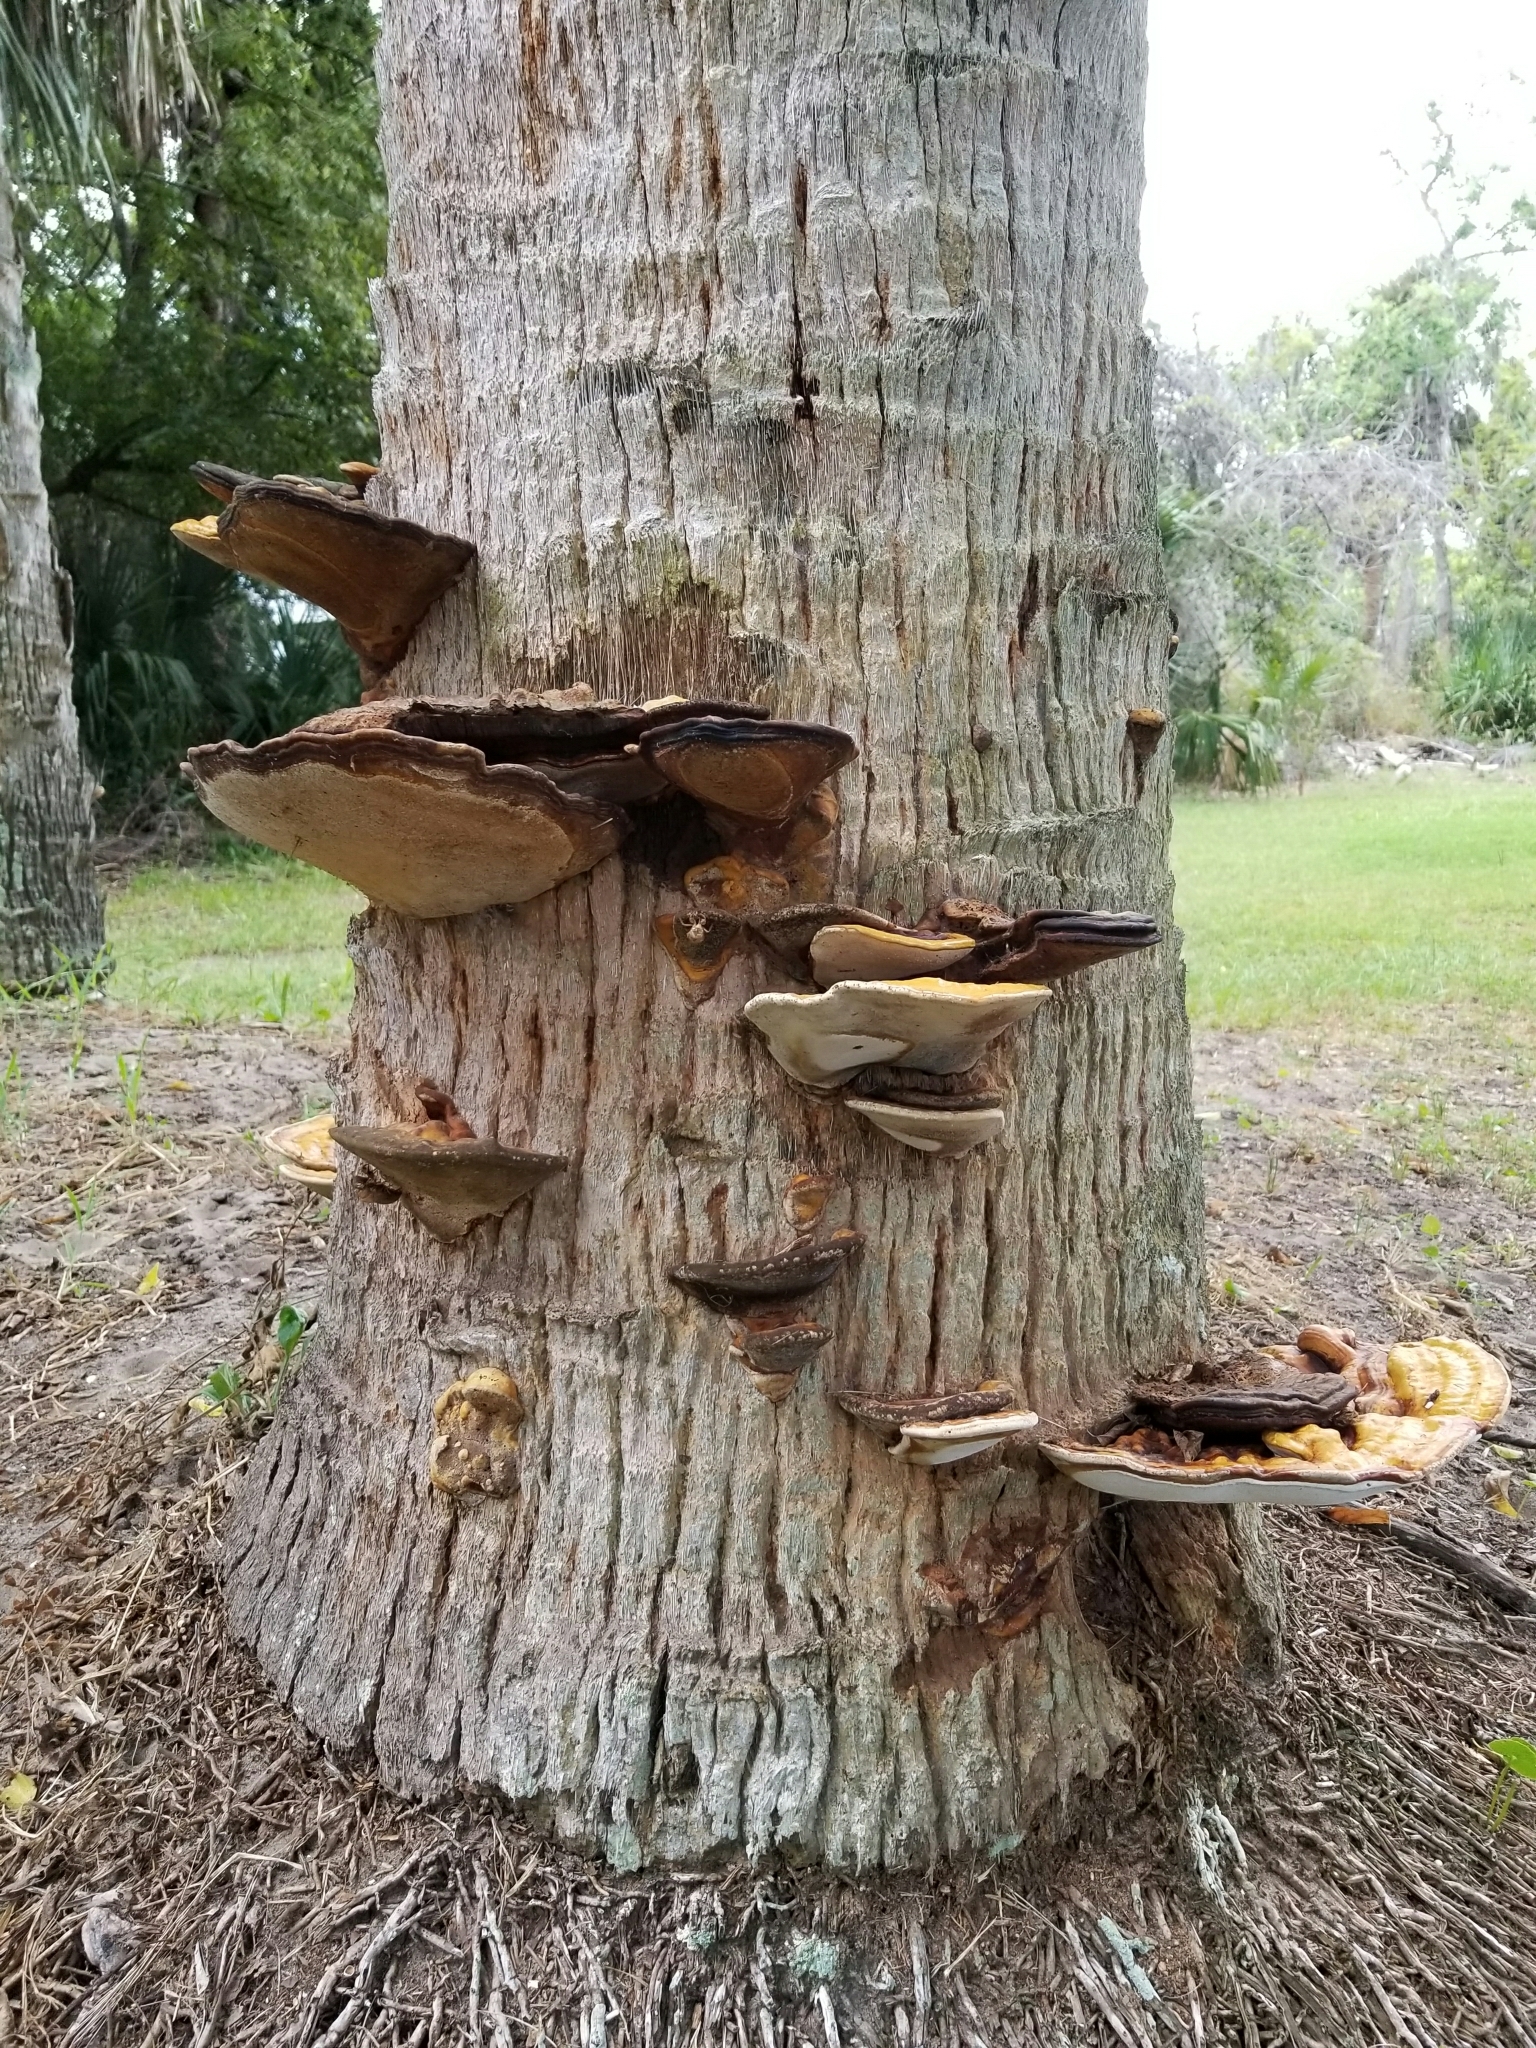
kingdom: Fungi
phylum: Basidiomycota
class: Agaricomycetes
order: Polyporales
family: Polyporaceae
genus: Ganoderma
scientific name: Ganoderma zonatum
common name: Ganoderma butt rot
